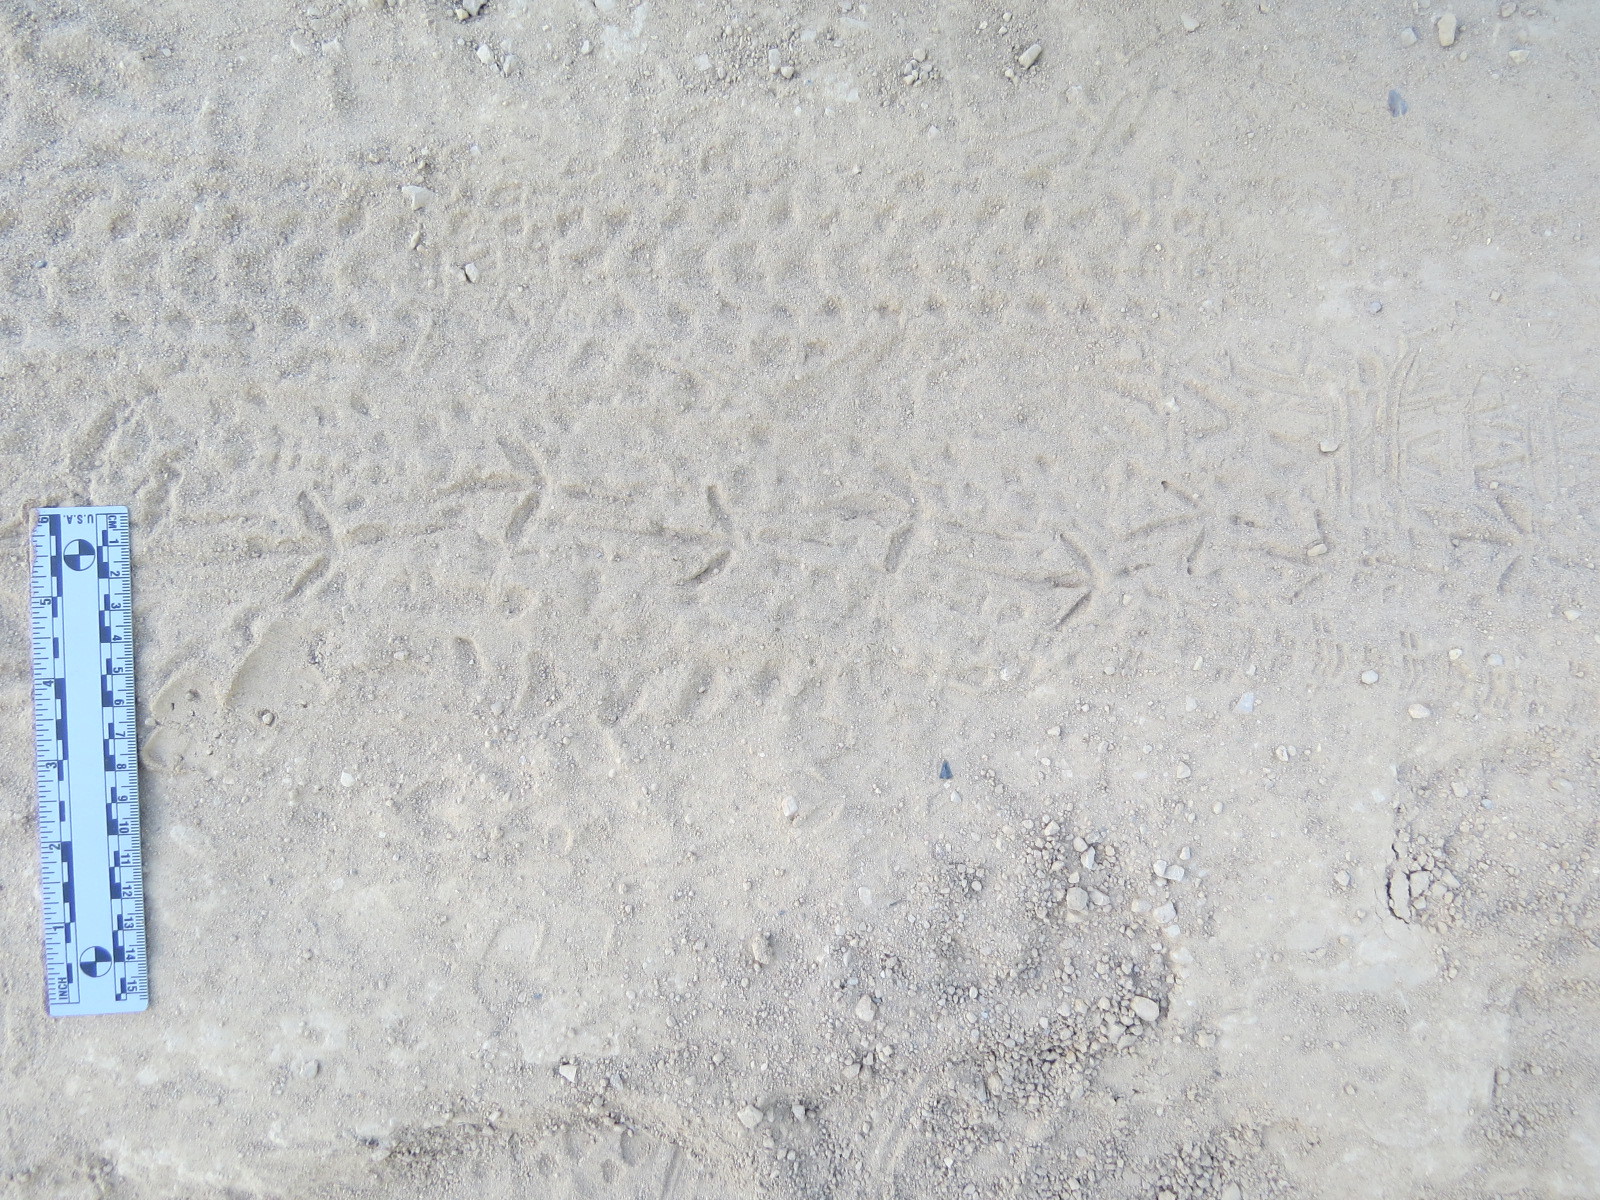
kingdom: Animalia
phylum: Chordata
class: Aves
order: Columbiformes
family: Columbidae
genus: Zenaida
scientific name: Zenaida macroura
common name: Mourning dove
